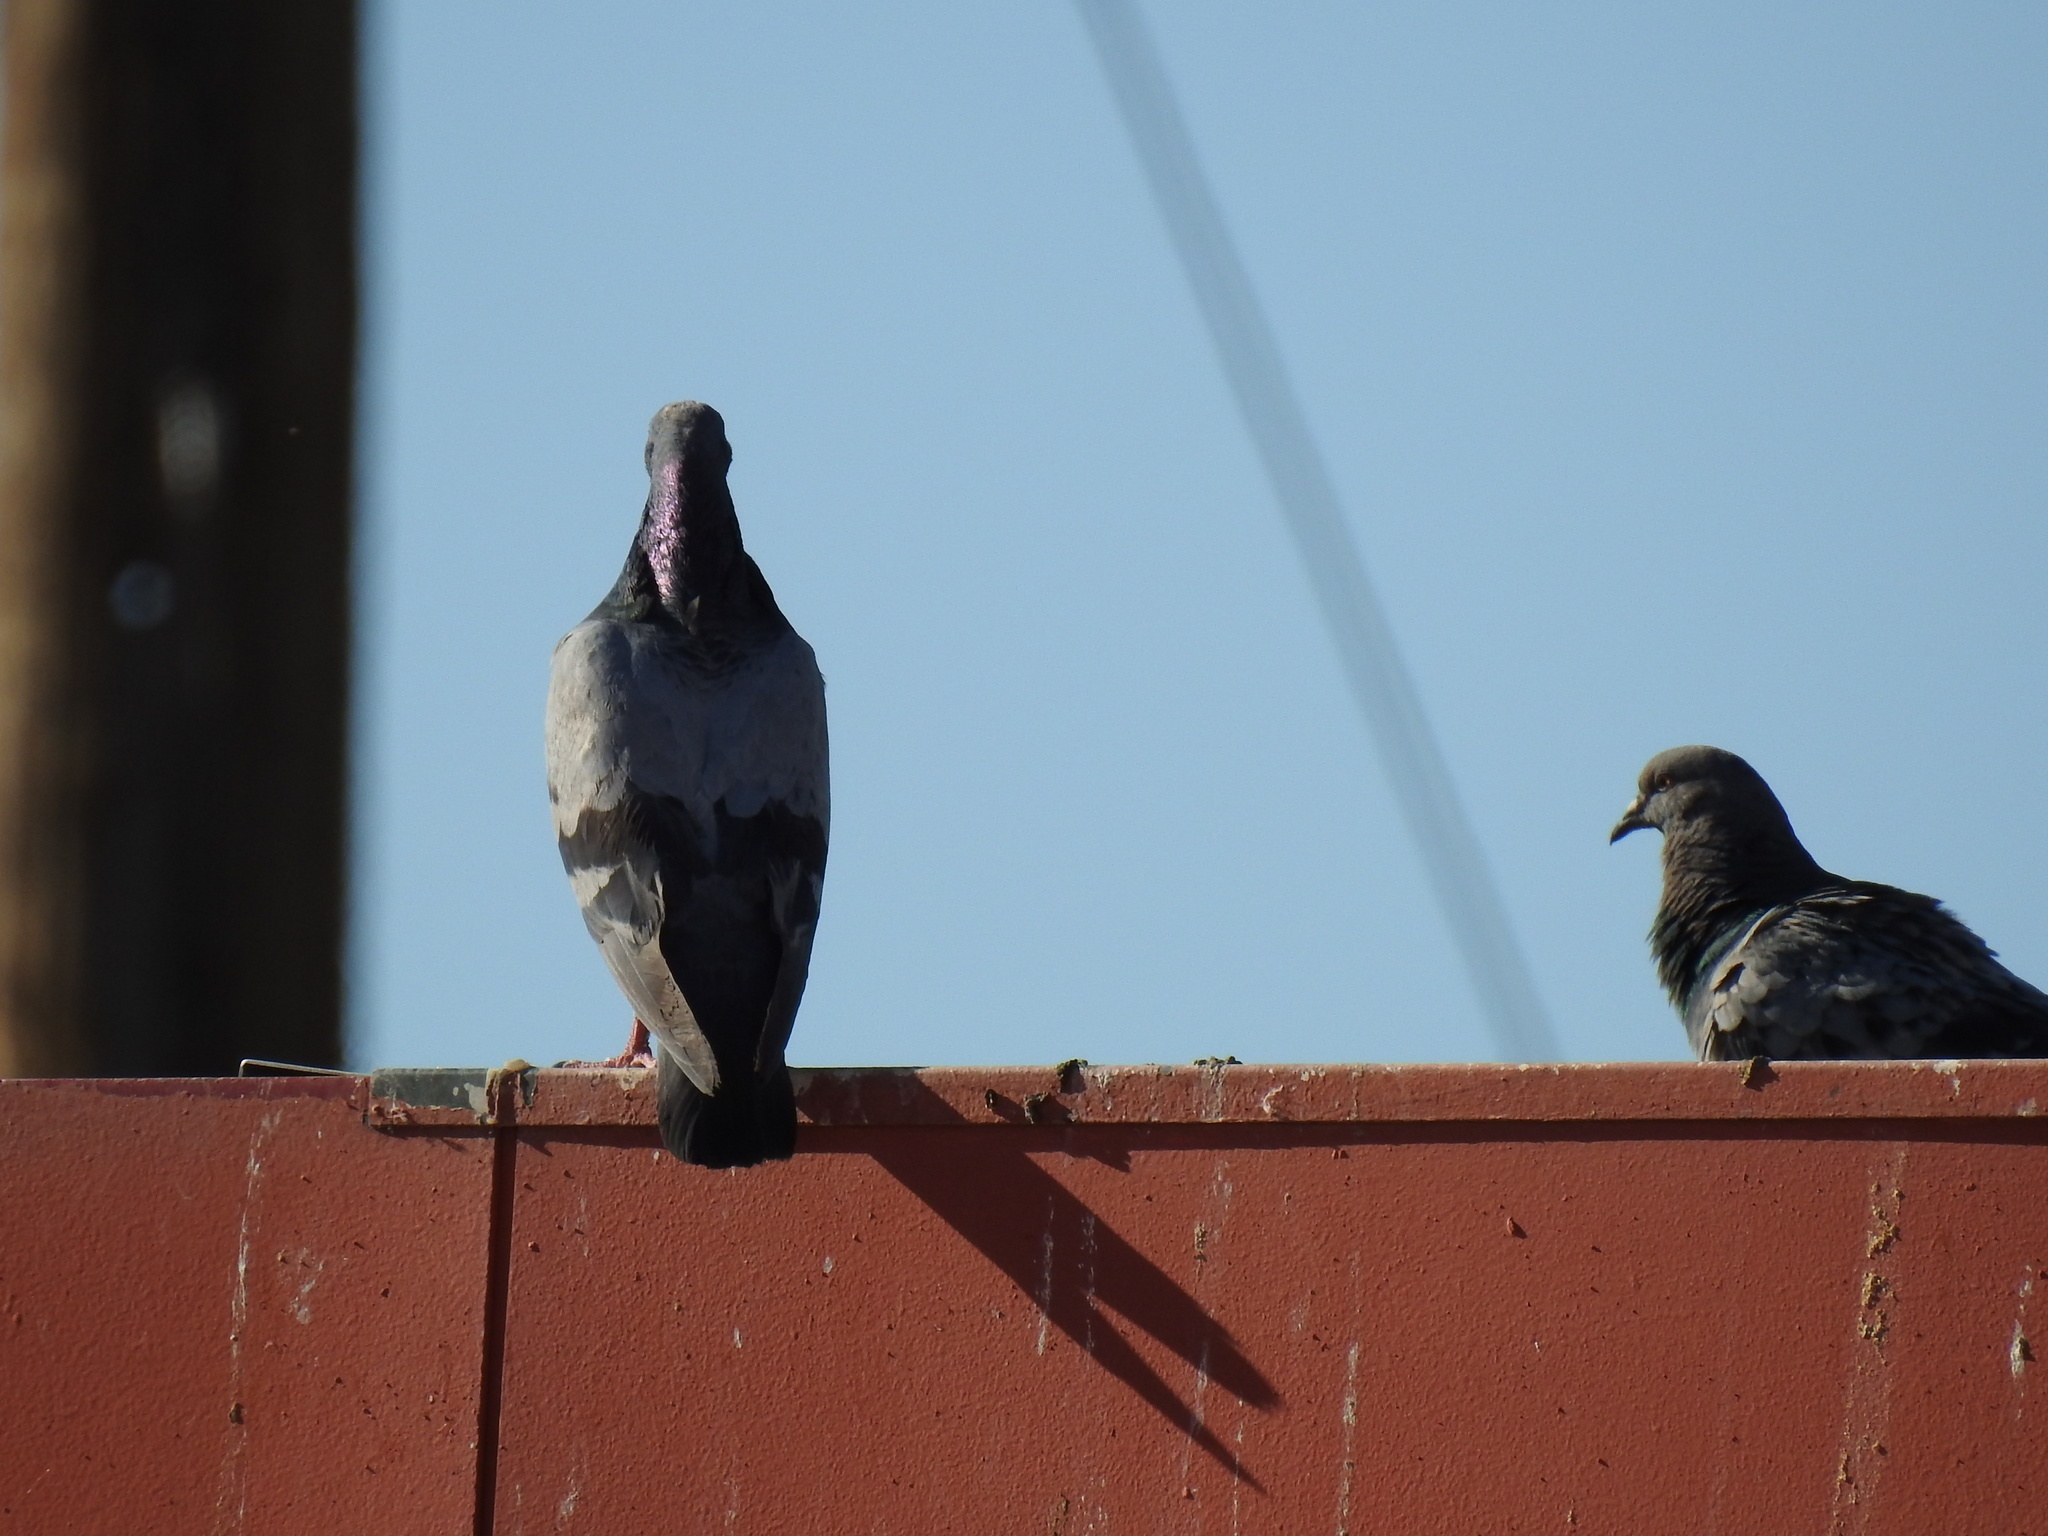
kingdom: Animalia
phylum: Chordata
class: Aves
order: Columbiformes
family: Columbidae
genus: Columba
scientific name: Columba livia
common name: Rock pigeon
